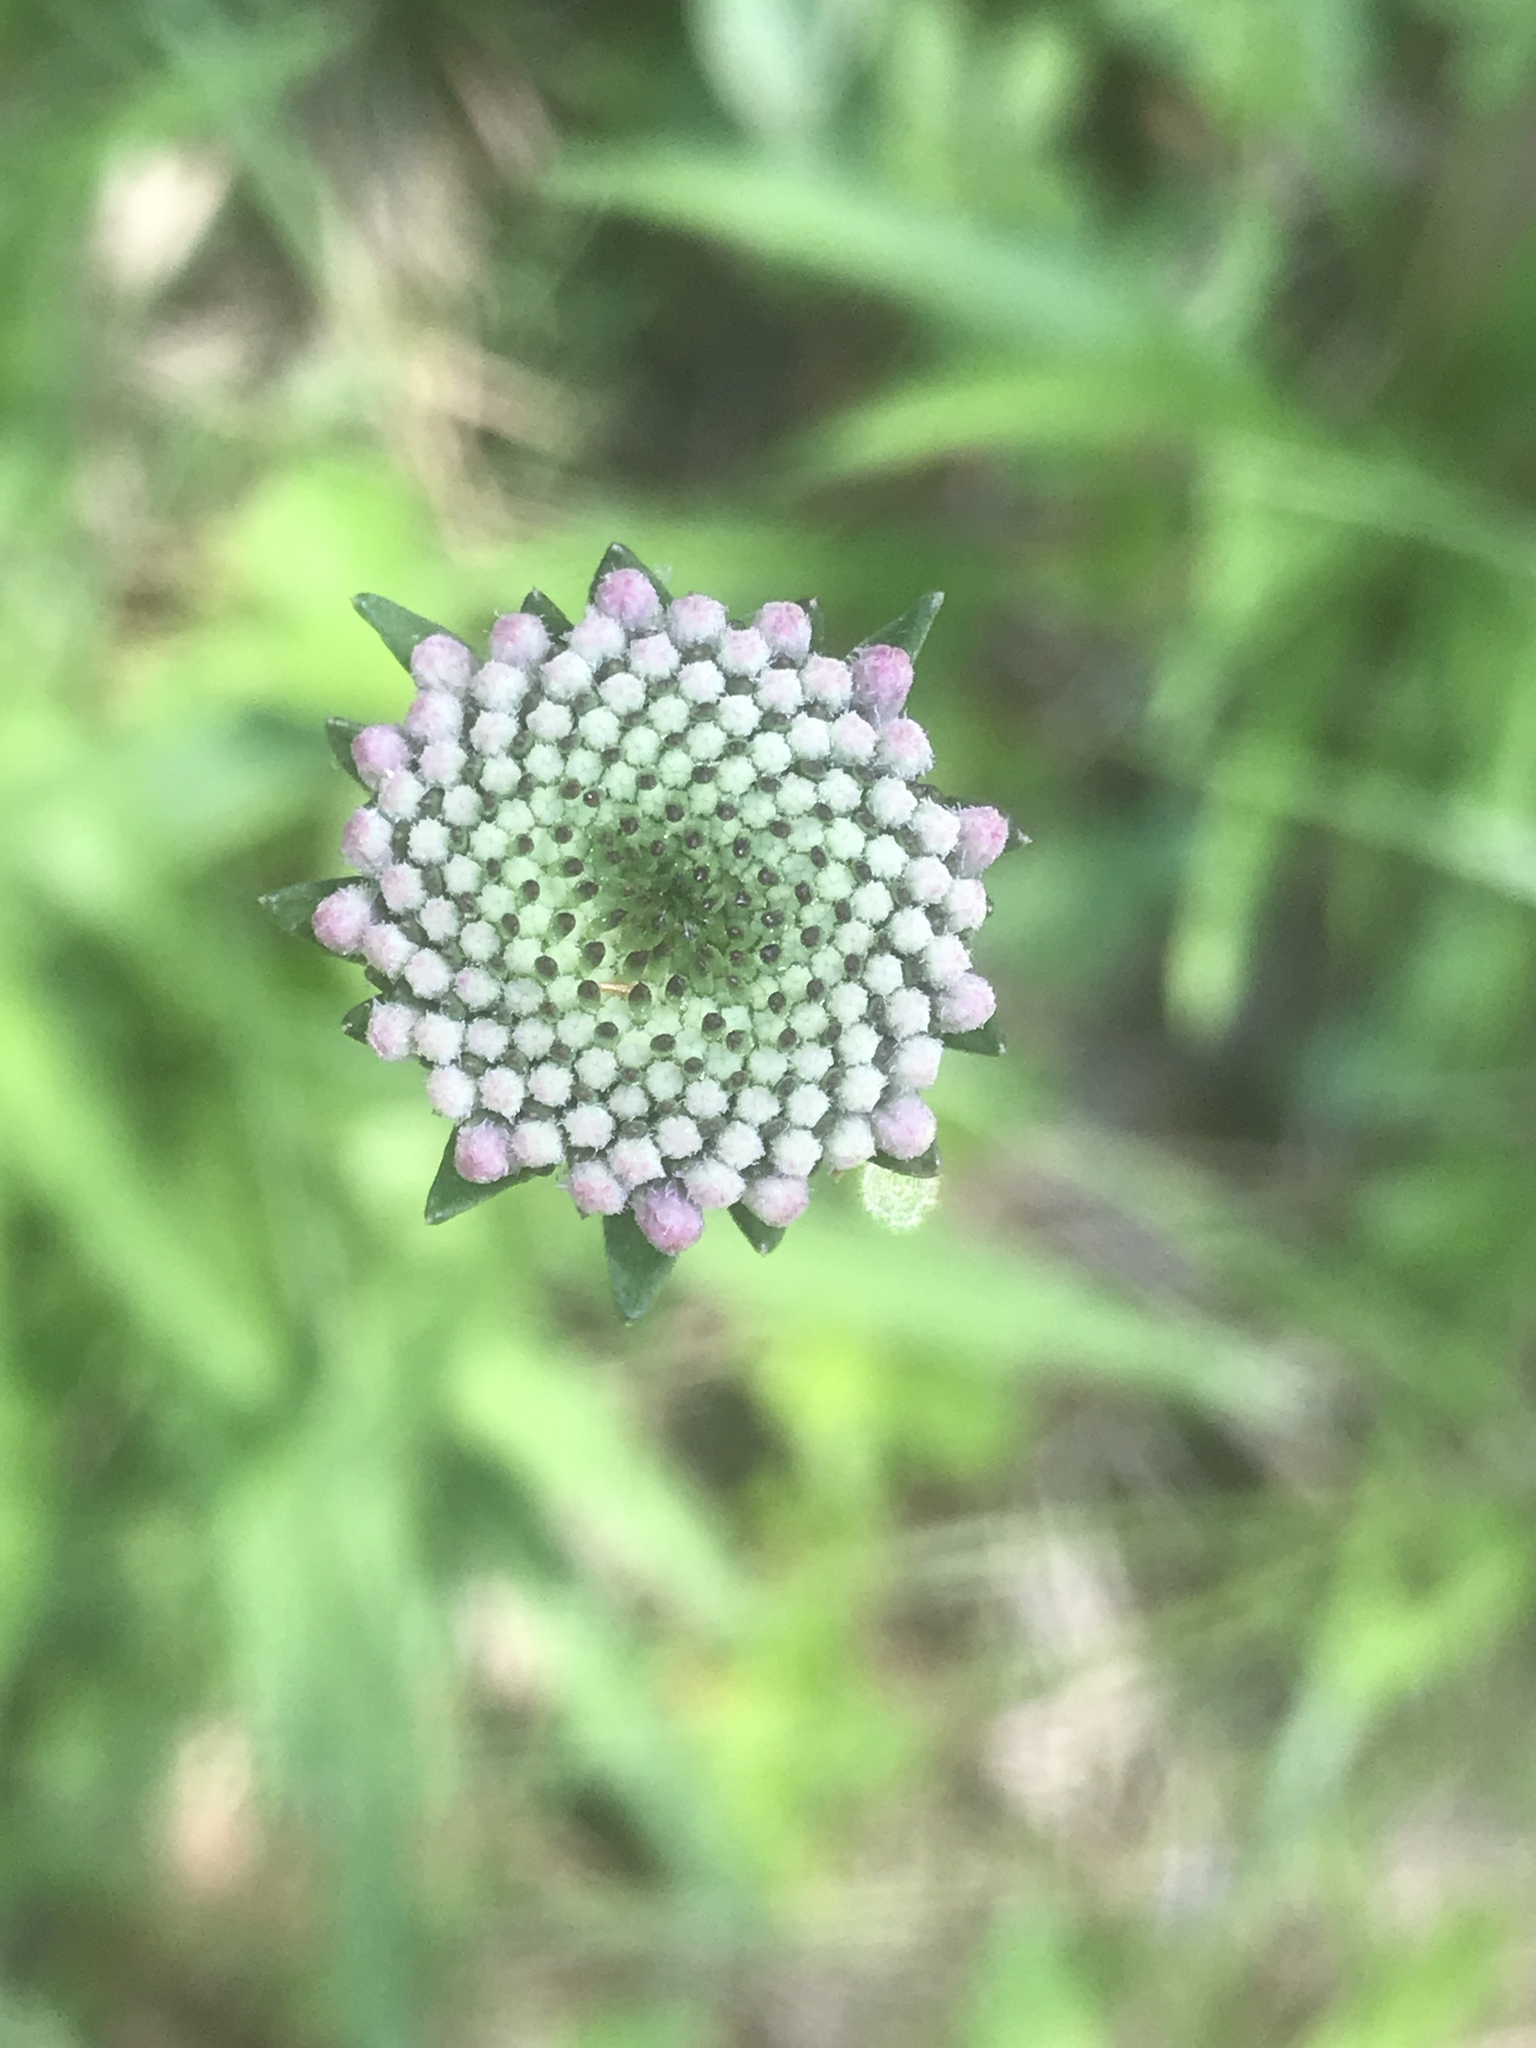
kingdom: Plantae
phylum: Tracheophyta
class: Magnoliopsida
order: Asterales
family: Asteraceae
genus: Marshallia
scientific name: Marshallia legrandii
